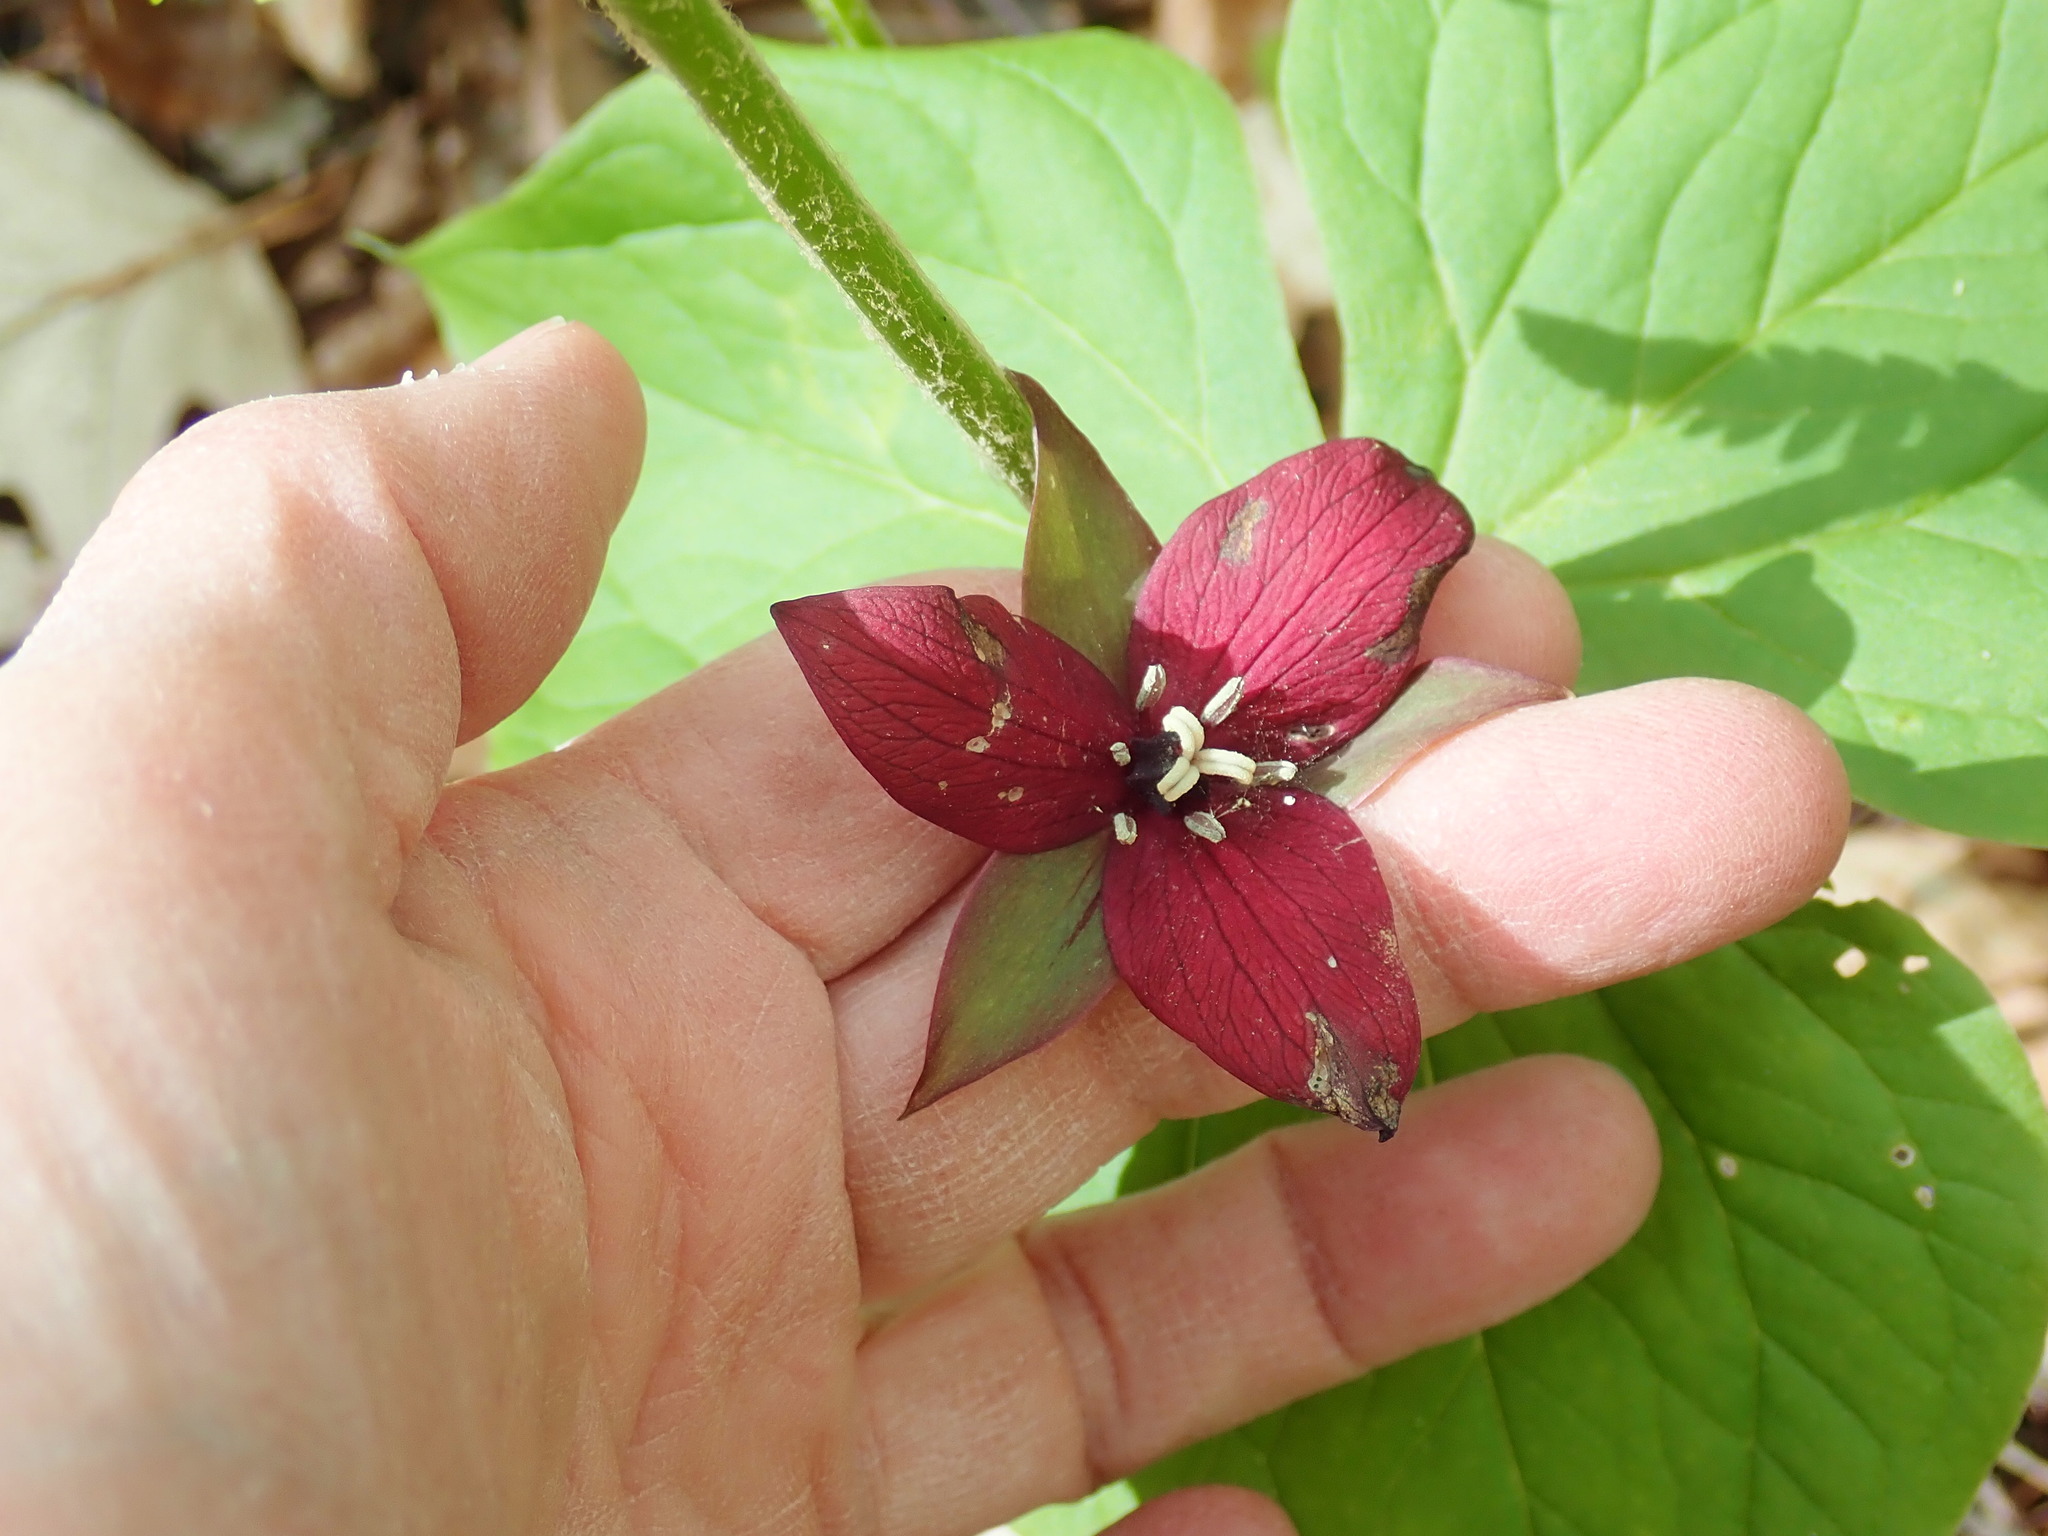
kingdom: Plantae
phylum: Tracheophyta
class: Liliopsida
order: Liliales
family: Melanthiaceae
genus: Trillium
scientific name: Trillium erectum
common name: Purple trillium
